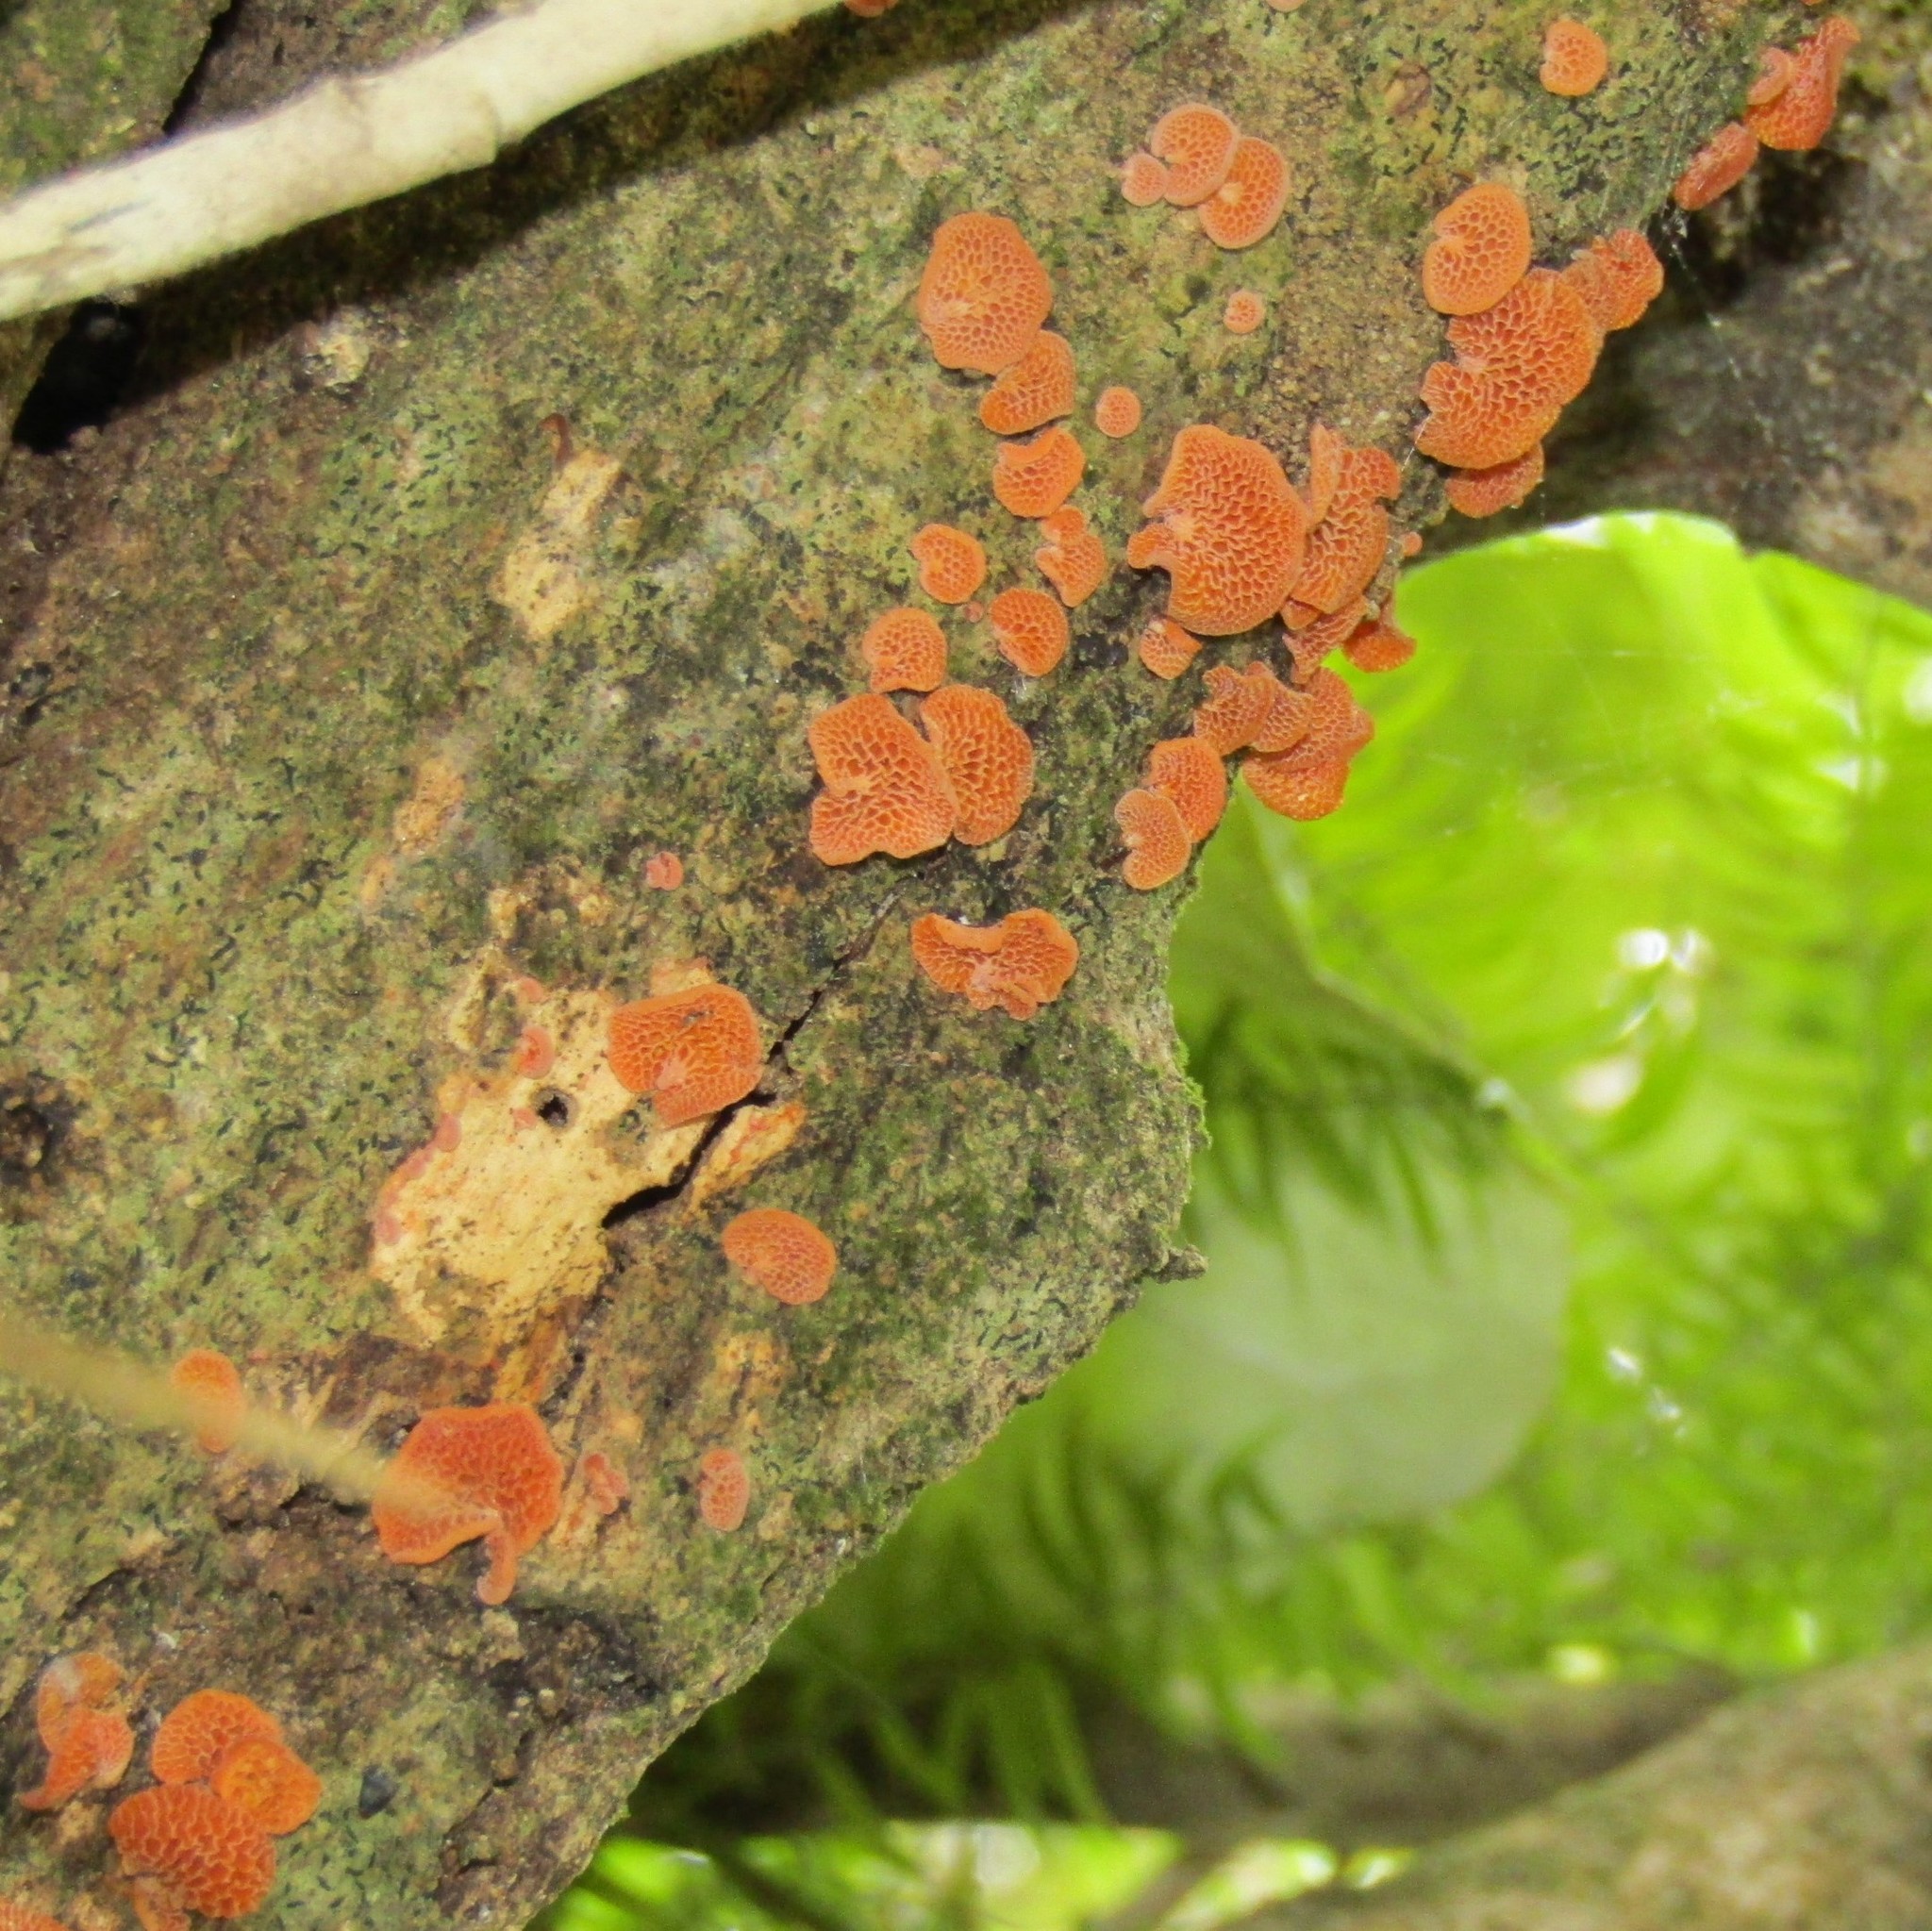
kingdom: Fungi
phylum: Basidiomycota
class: Agaricomycetes
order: Agaricales
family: Mycenaceae
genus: Favolaschia
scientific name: Favolaschia claudopus
